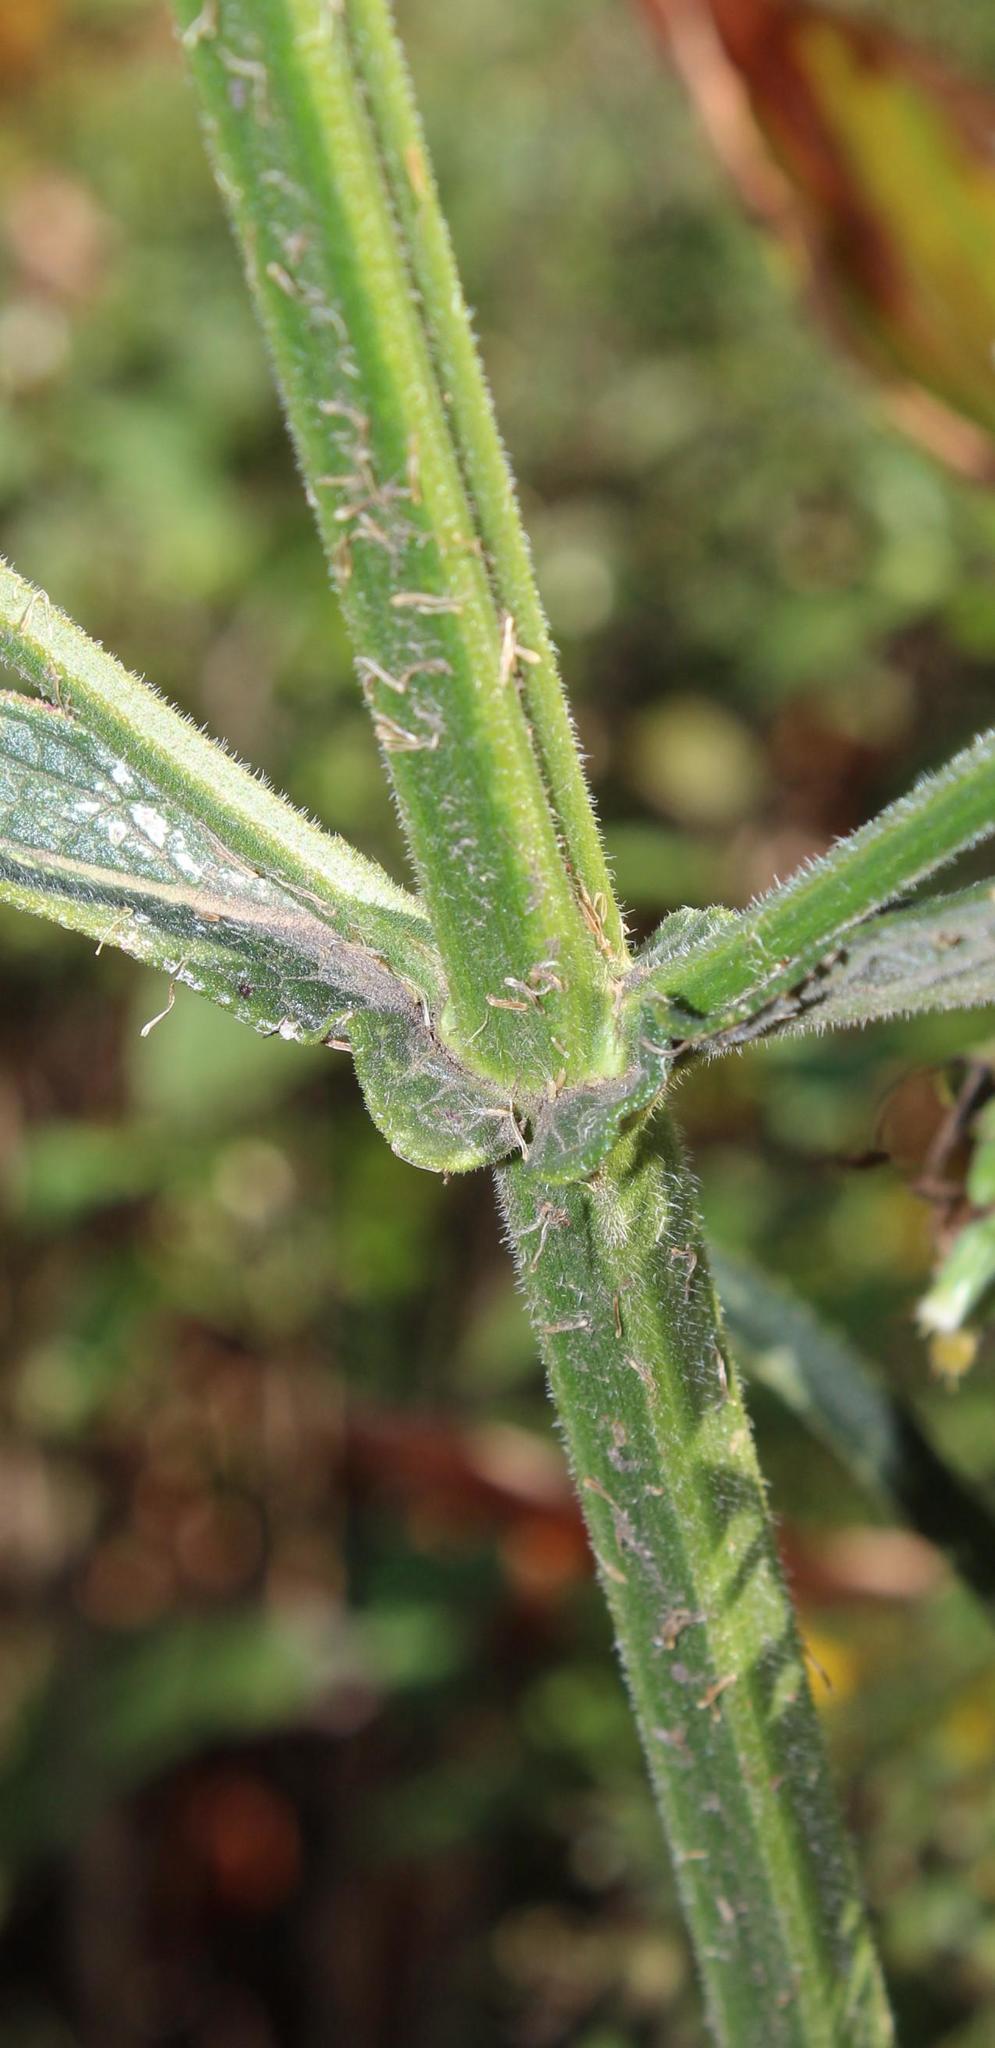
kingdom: Plantae
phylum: Tracheophyta
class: Magnoliopsida
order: Lamiales
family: Verbenaceae
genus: Verbena
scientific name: Verbena bonariensis
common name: Purpletop vervain
